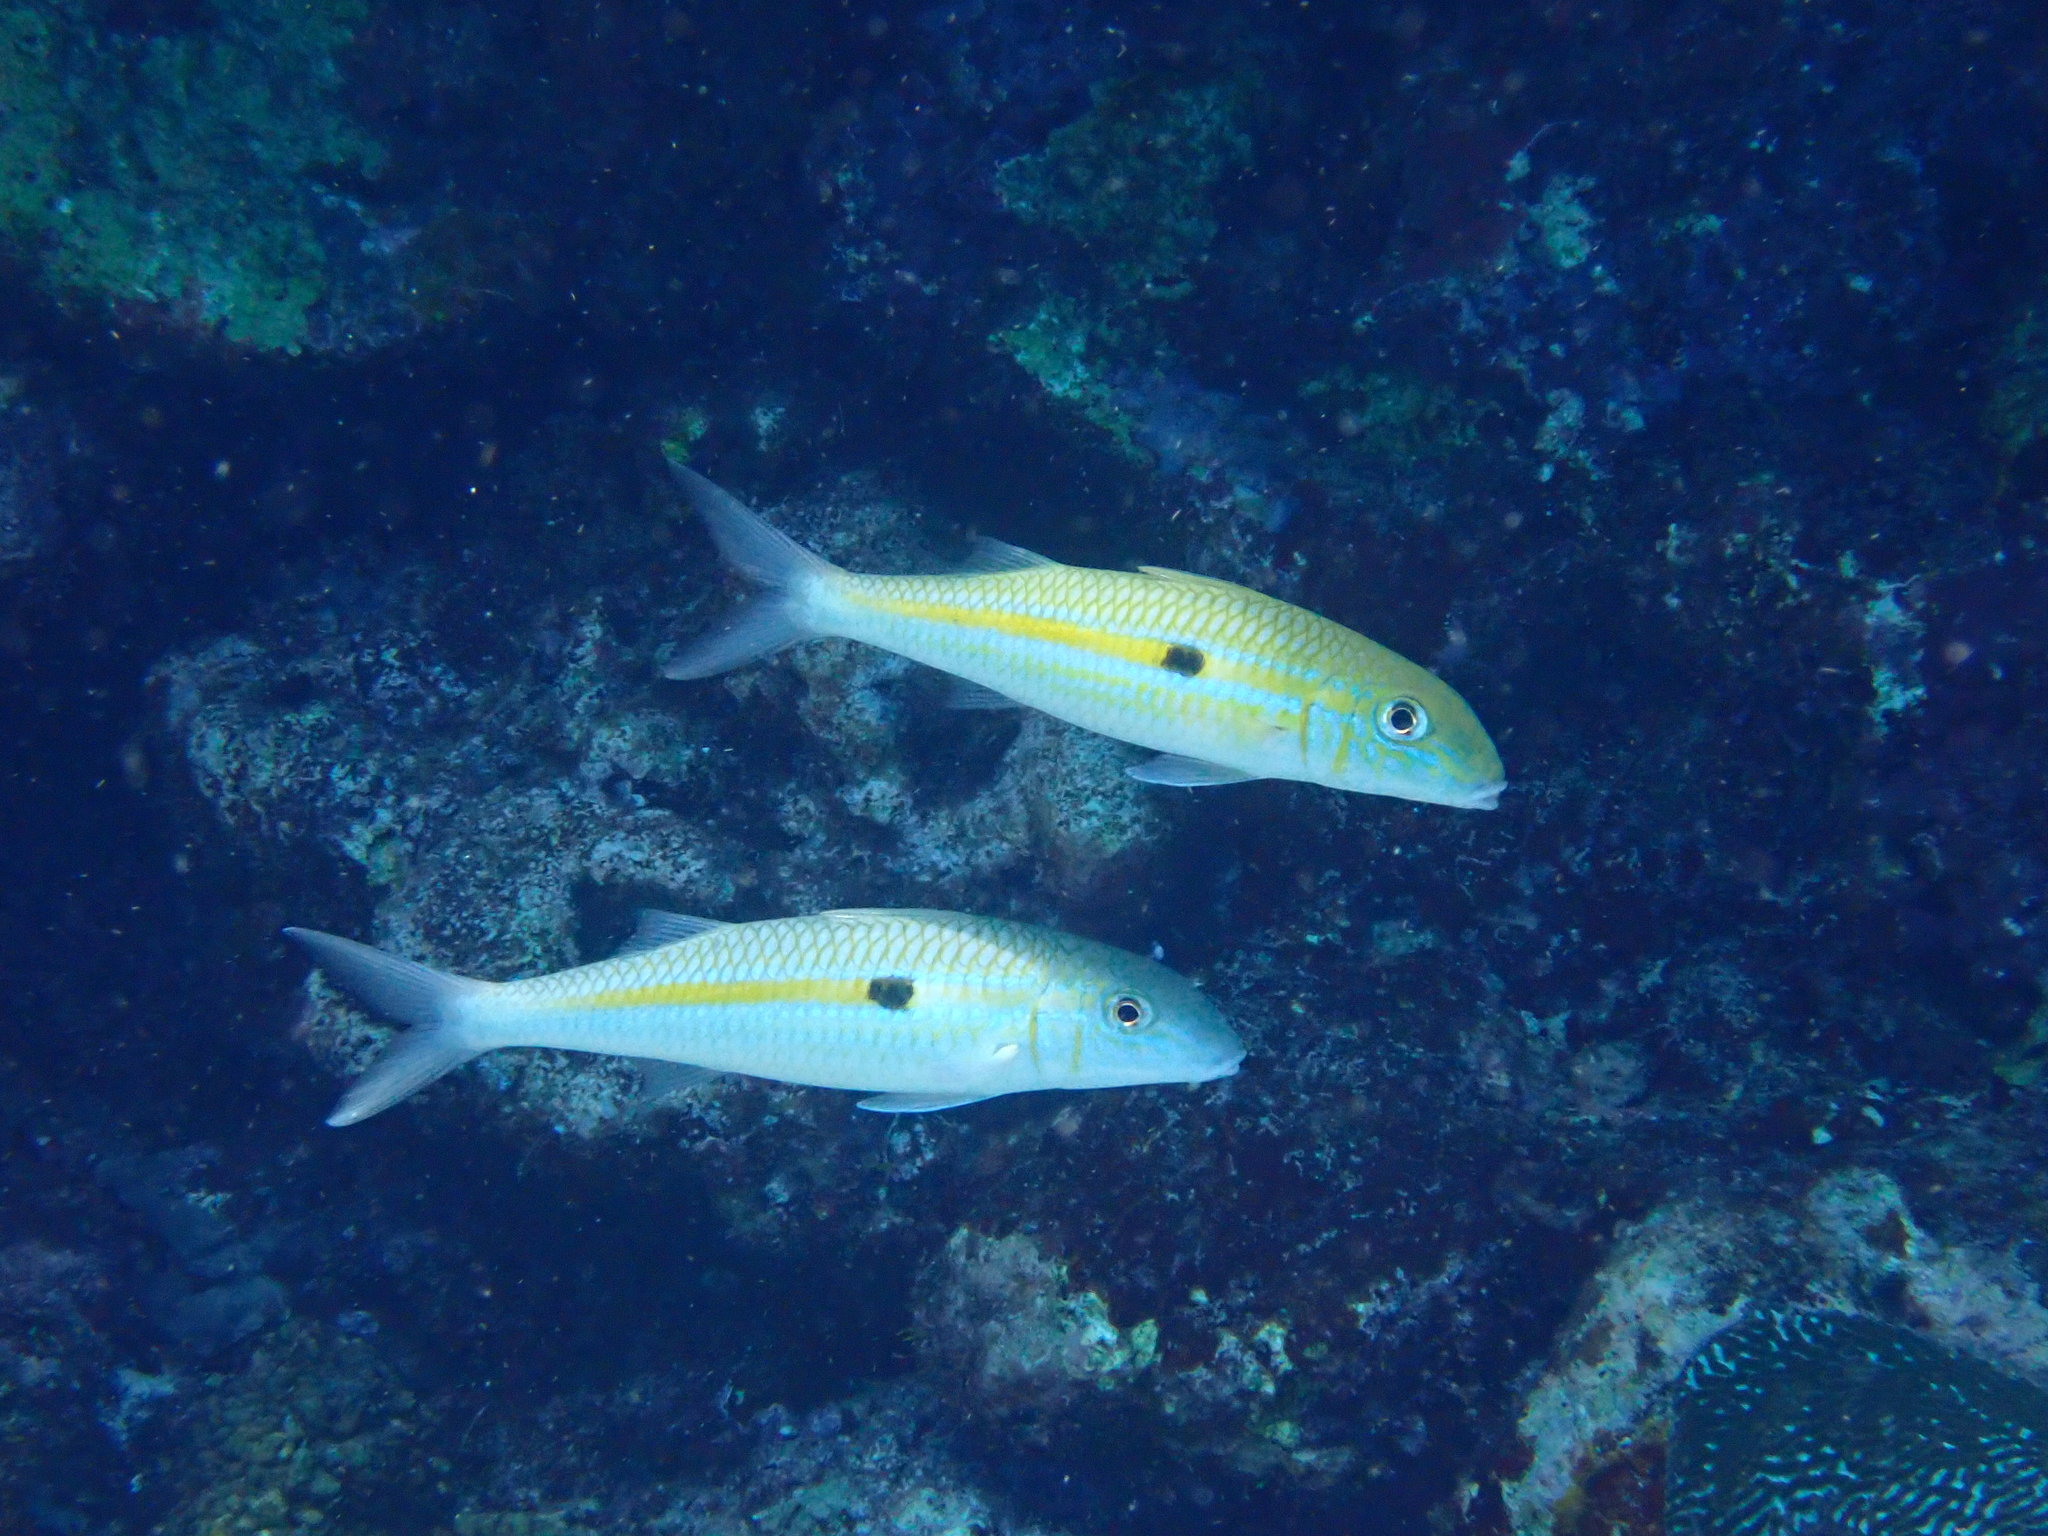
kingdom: Animalia
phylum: Chordata
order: Perciformes
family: Mullidae
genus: Mulloidichthys
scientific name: Mulloidichthys flavolineatus
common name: Yellowstripe goatfish
